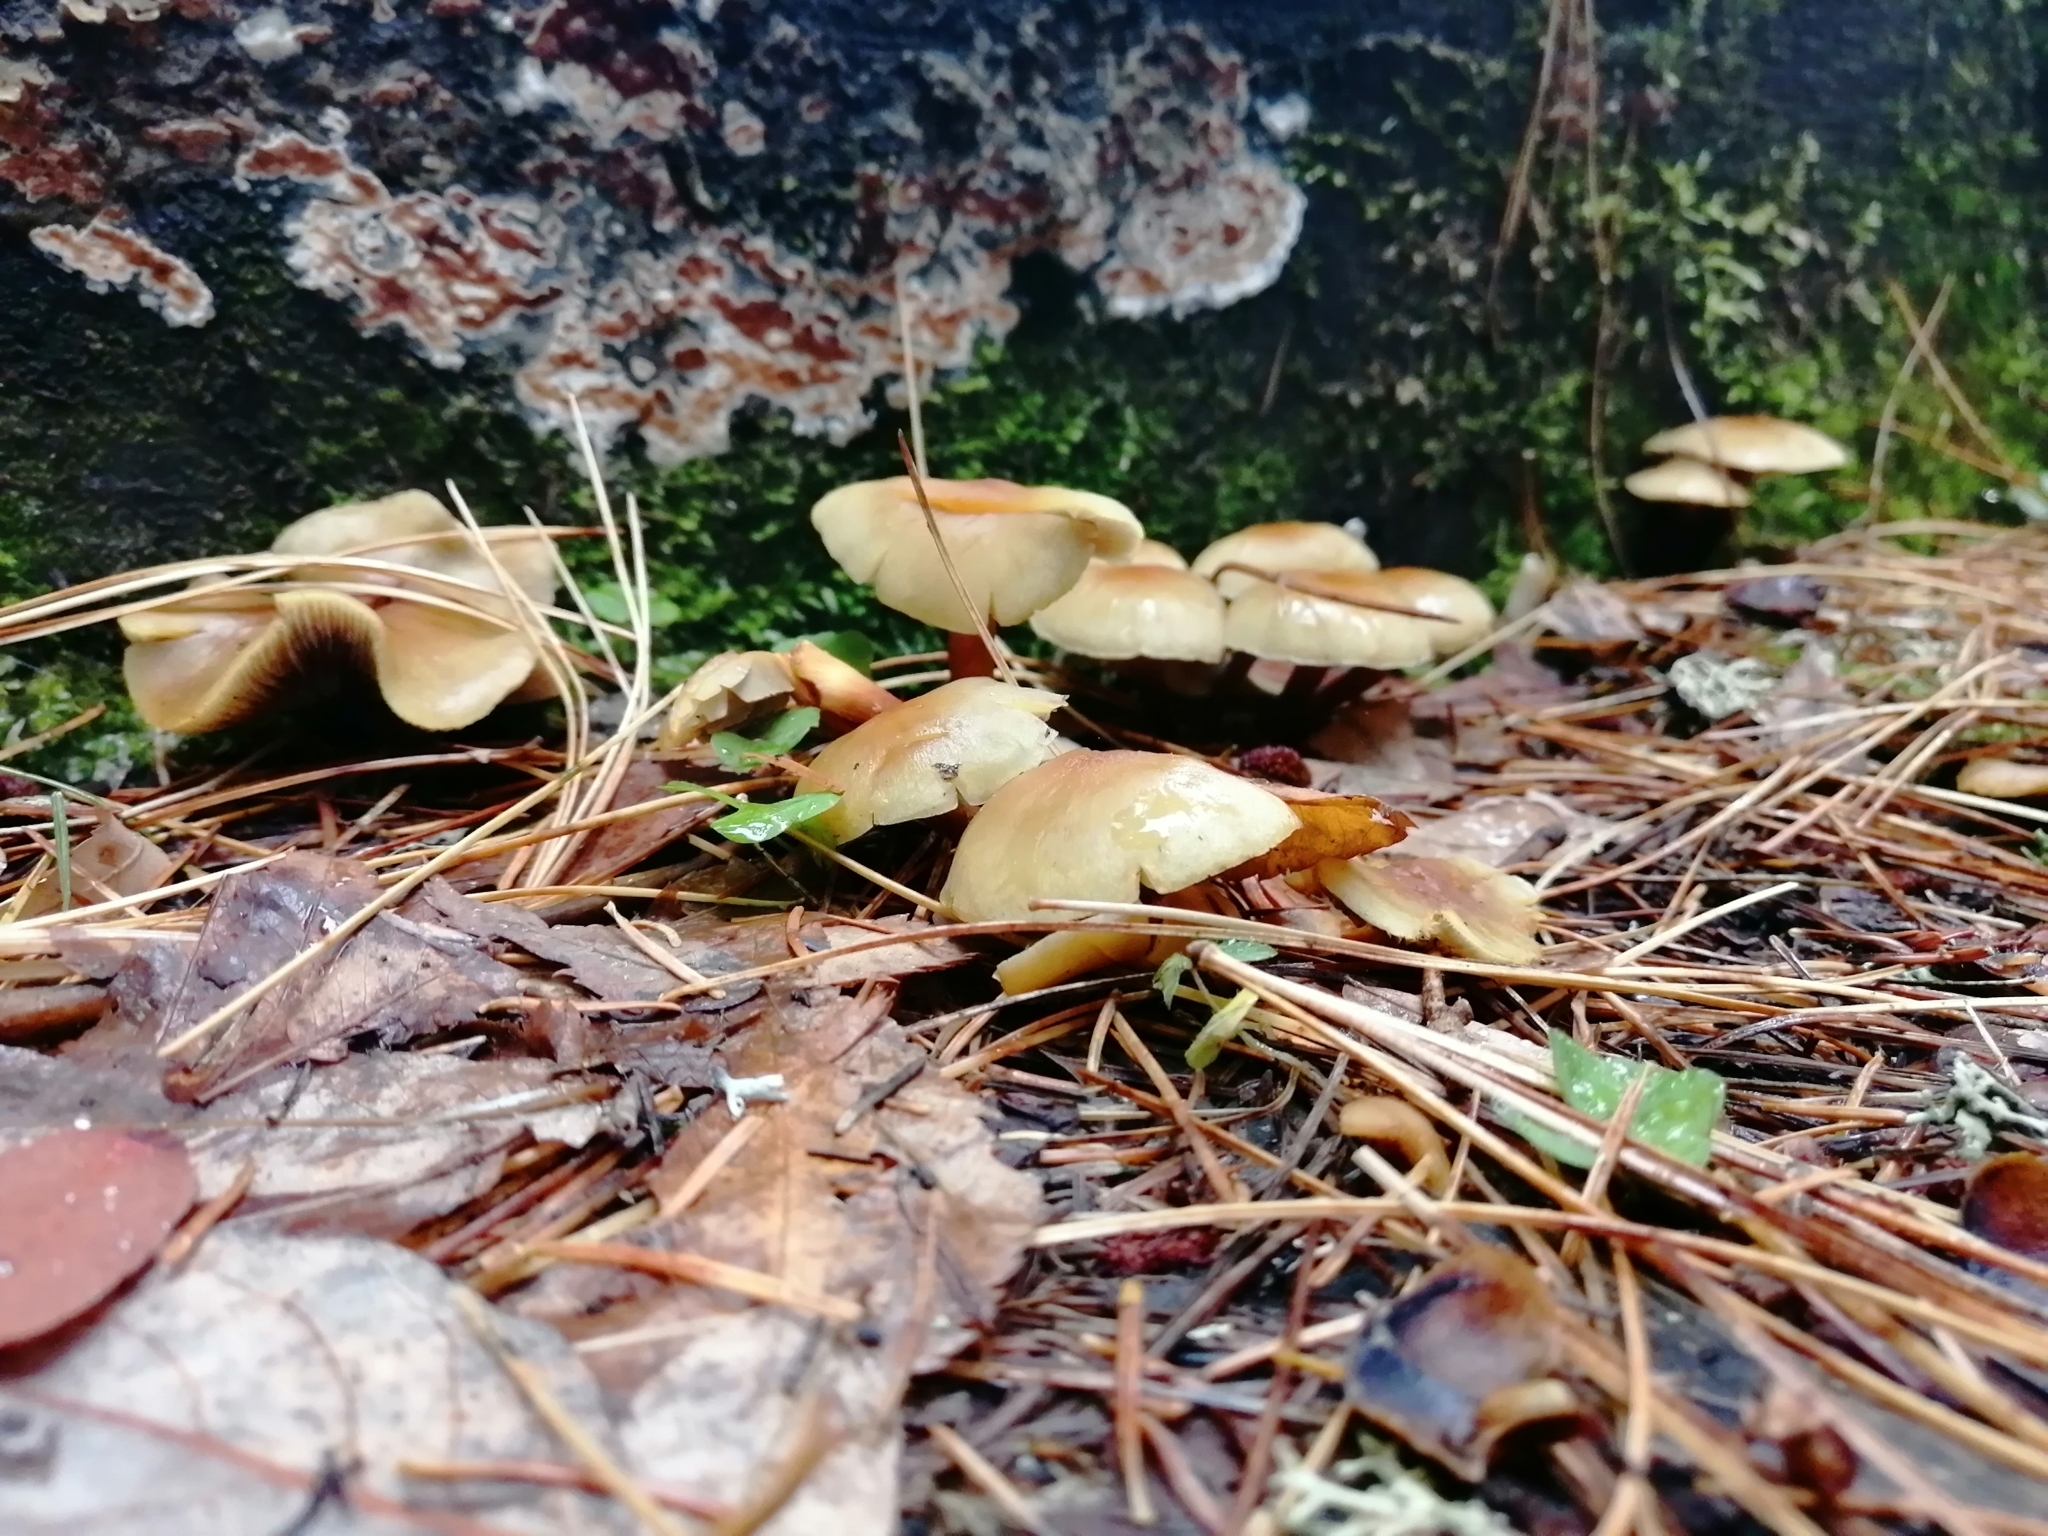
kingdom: Fungi
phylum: Basidiomycota
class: Agaricomycetes
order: Agaricales
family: Strophariaceae
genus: Hypholoma
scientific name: Hypholoma capnoides
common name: Conifer tuft
